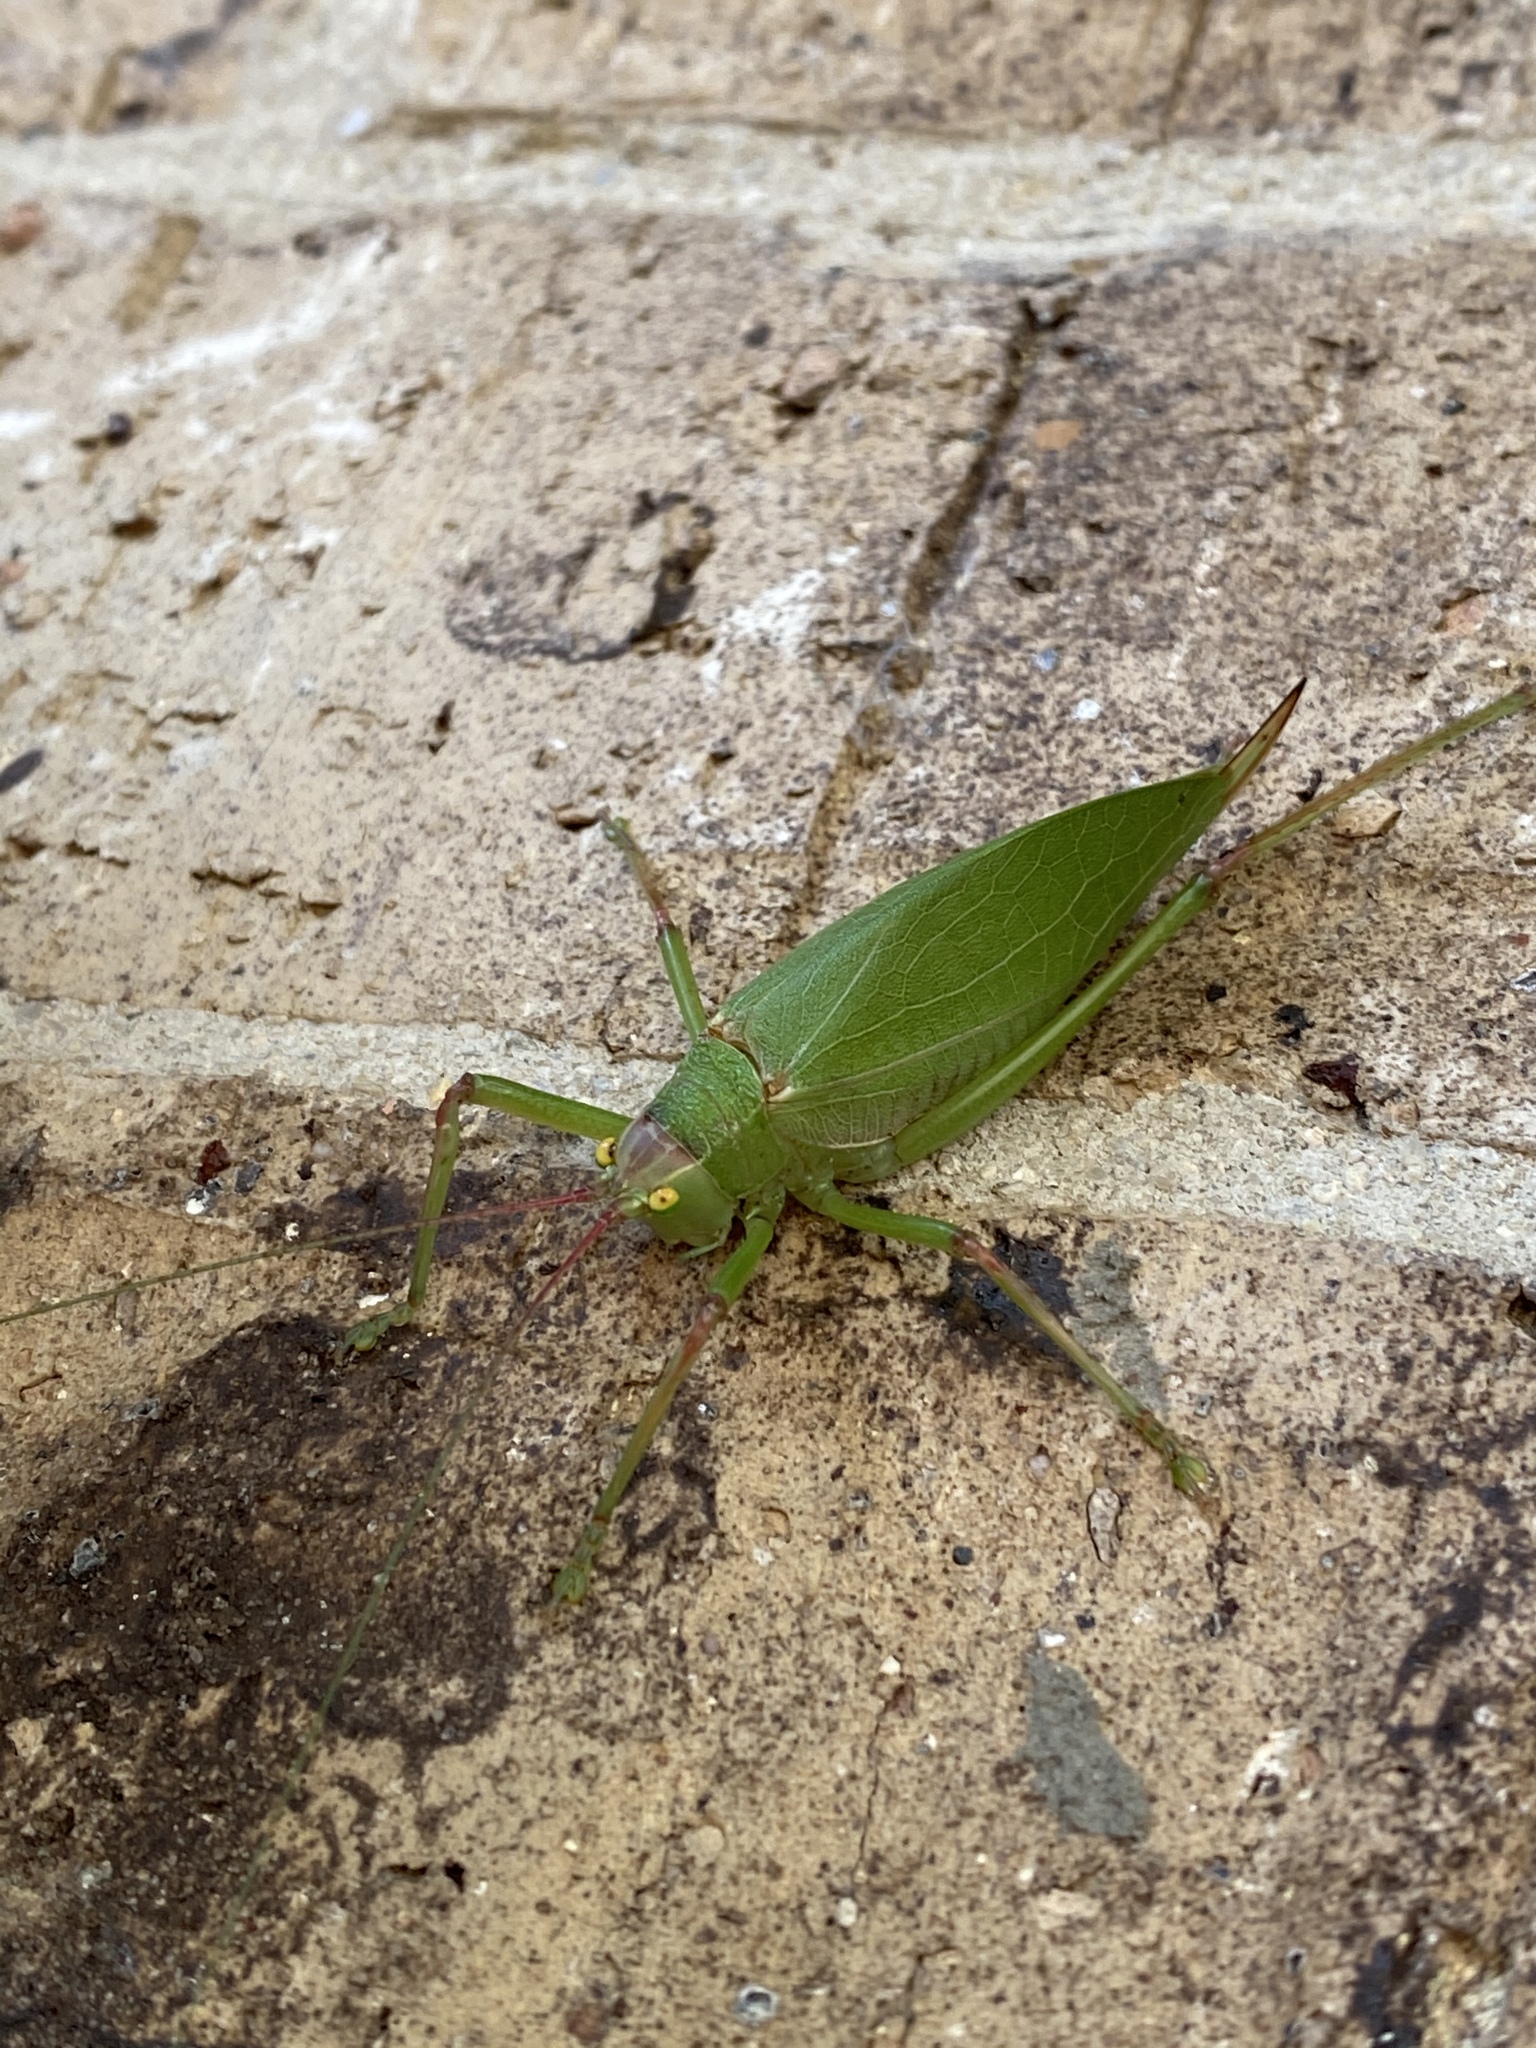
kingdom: Animalia
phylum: Arthropoda
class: Insecta
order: Orthoptera
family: Tettigoniidae
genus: Pterophylla
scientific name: Pterophylla camellifolia
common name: Common true katydid
